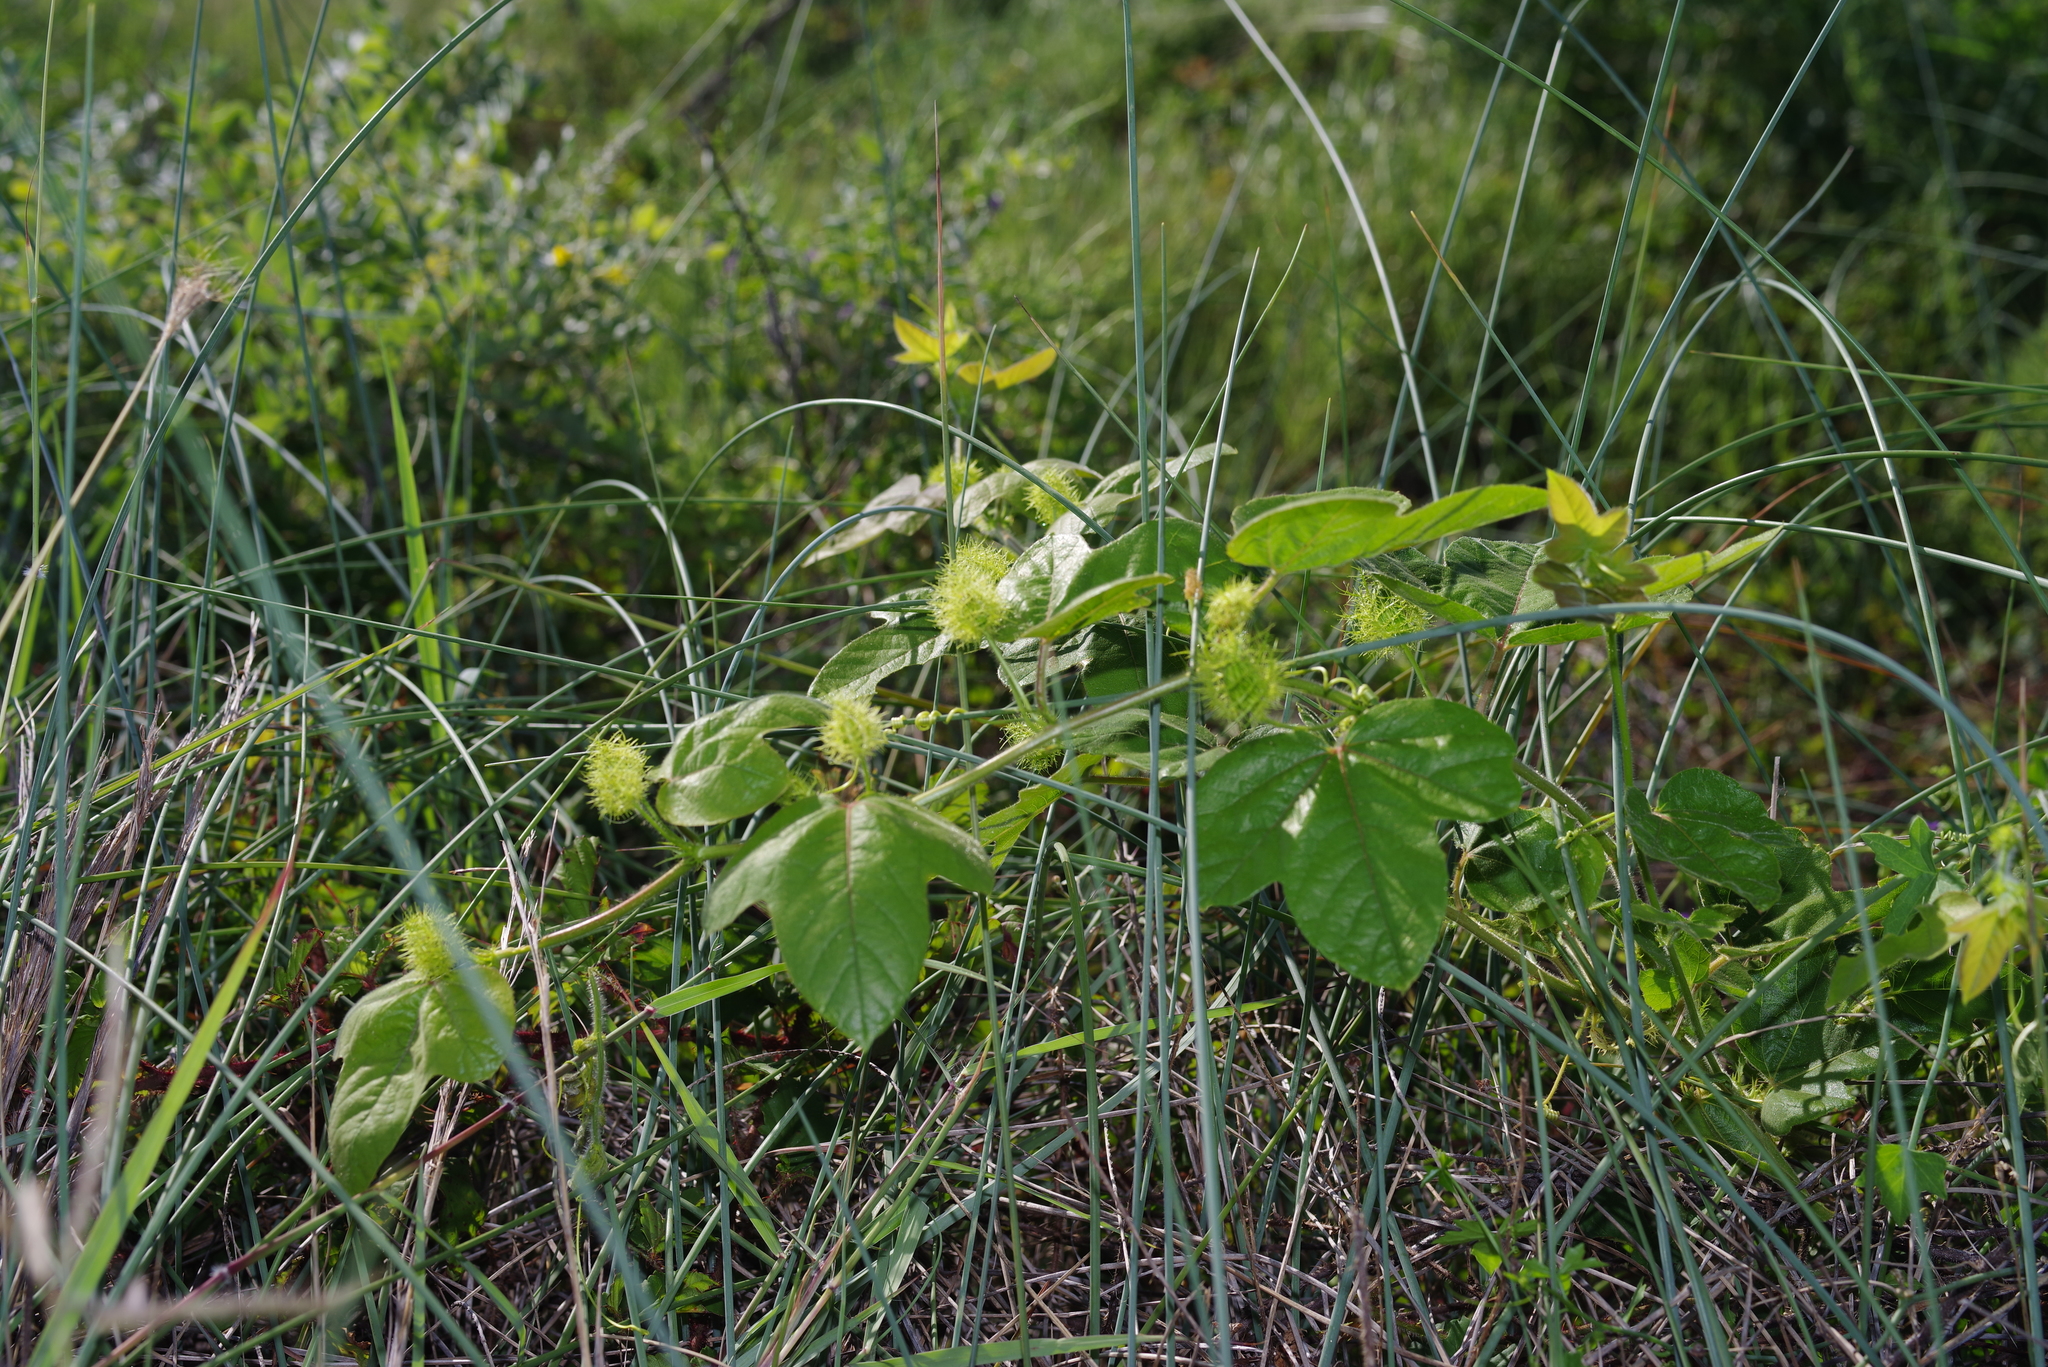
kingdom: Plantae
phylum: Tracheophyta
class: Magnoliopsida
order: Malpighiales
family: Passifloraceae
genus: Passiflora
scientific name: Passiflora
